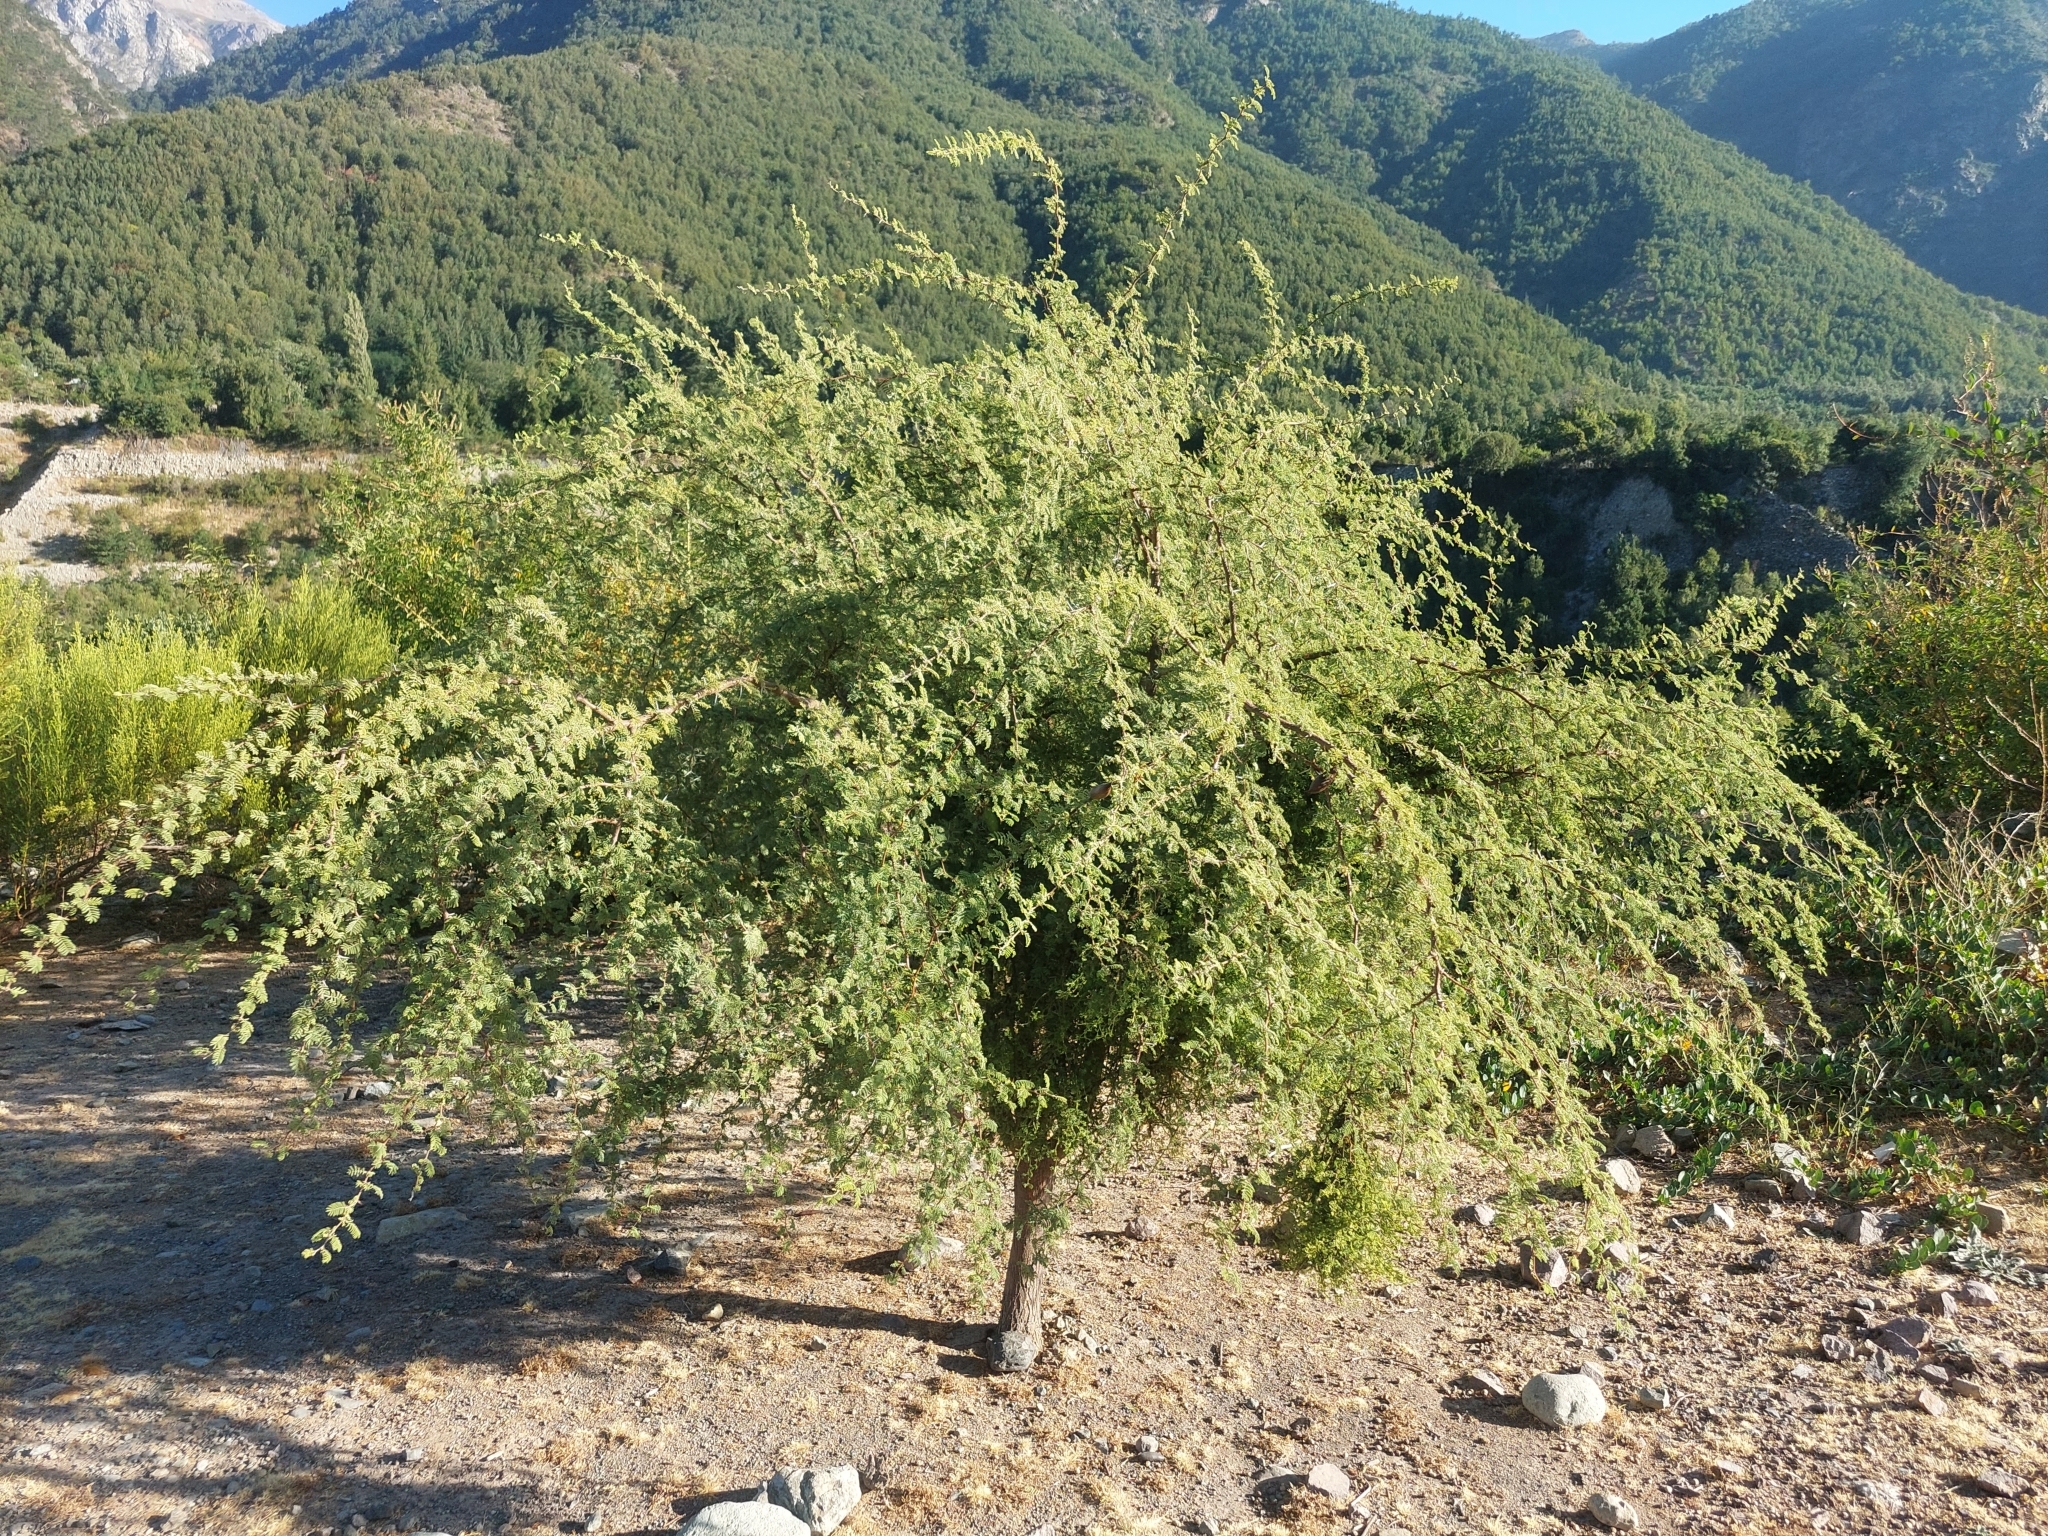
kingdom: Plantae
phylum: Tracheophyta
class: Magnoliopsida
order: Fabales
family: Fabaceae
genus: Vachellia
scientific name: Vachellia caven
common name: Roman cassie
